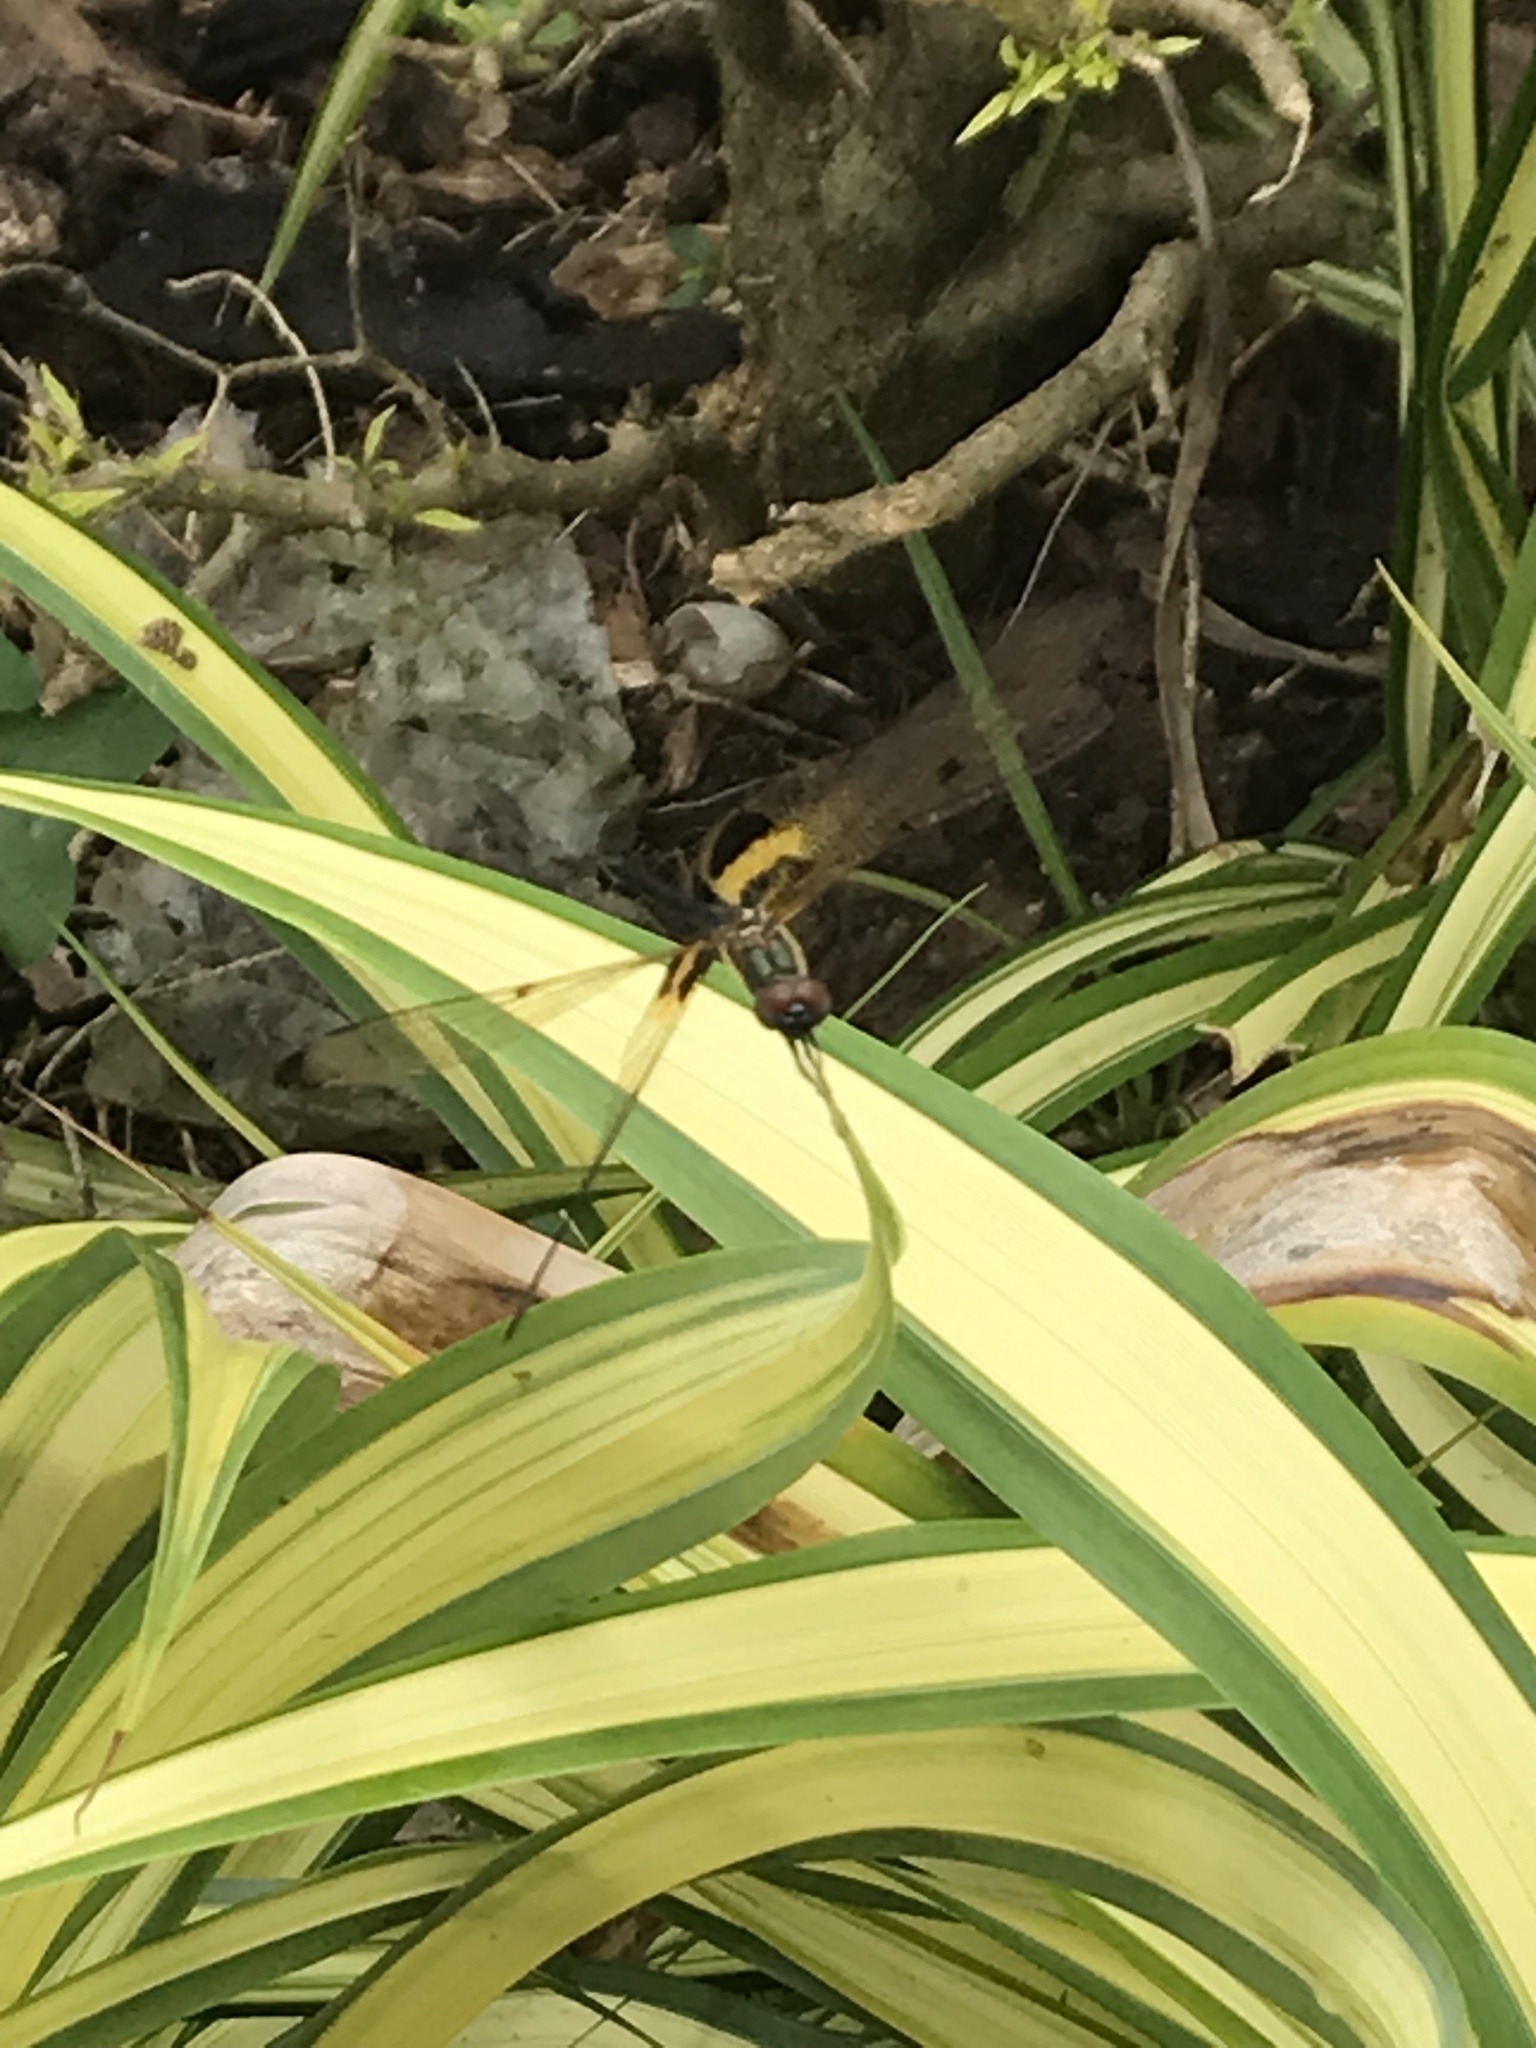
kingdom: Animalia
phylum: Arthropoda
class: Insecta
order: Odonata
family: Libellulidae
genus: Rhyothemis
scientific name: Rhyothemis phyllis
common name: Yellow-barred flutterer
